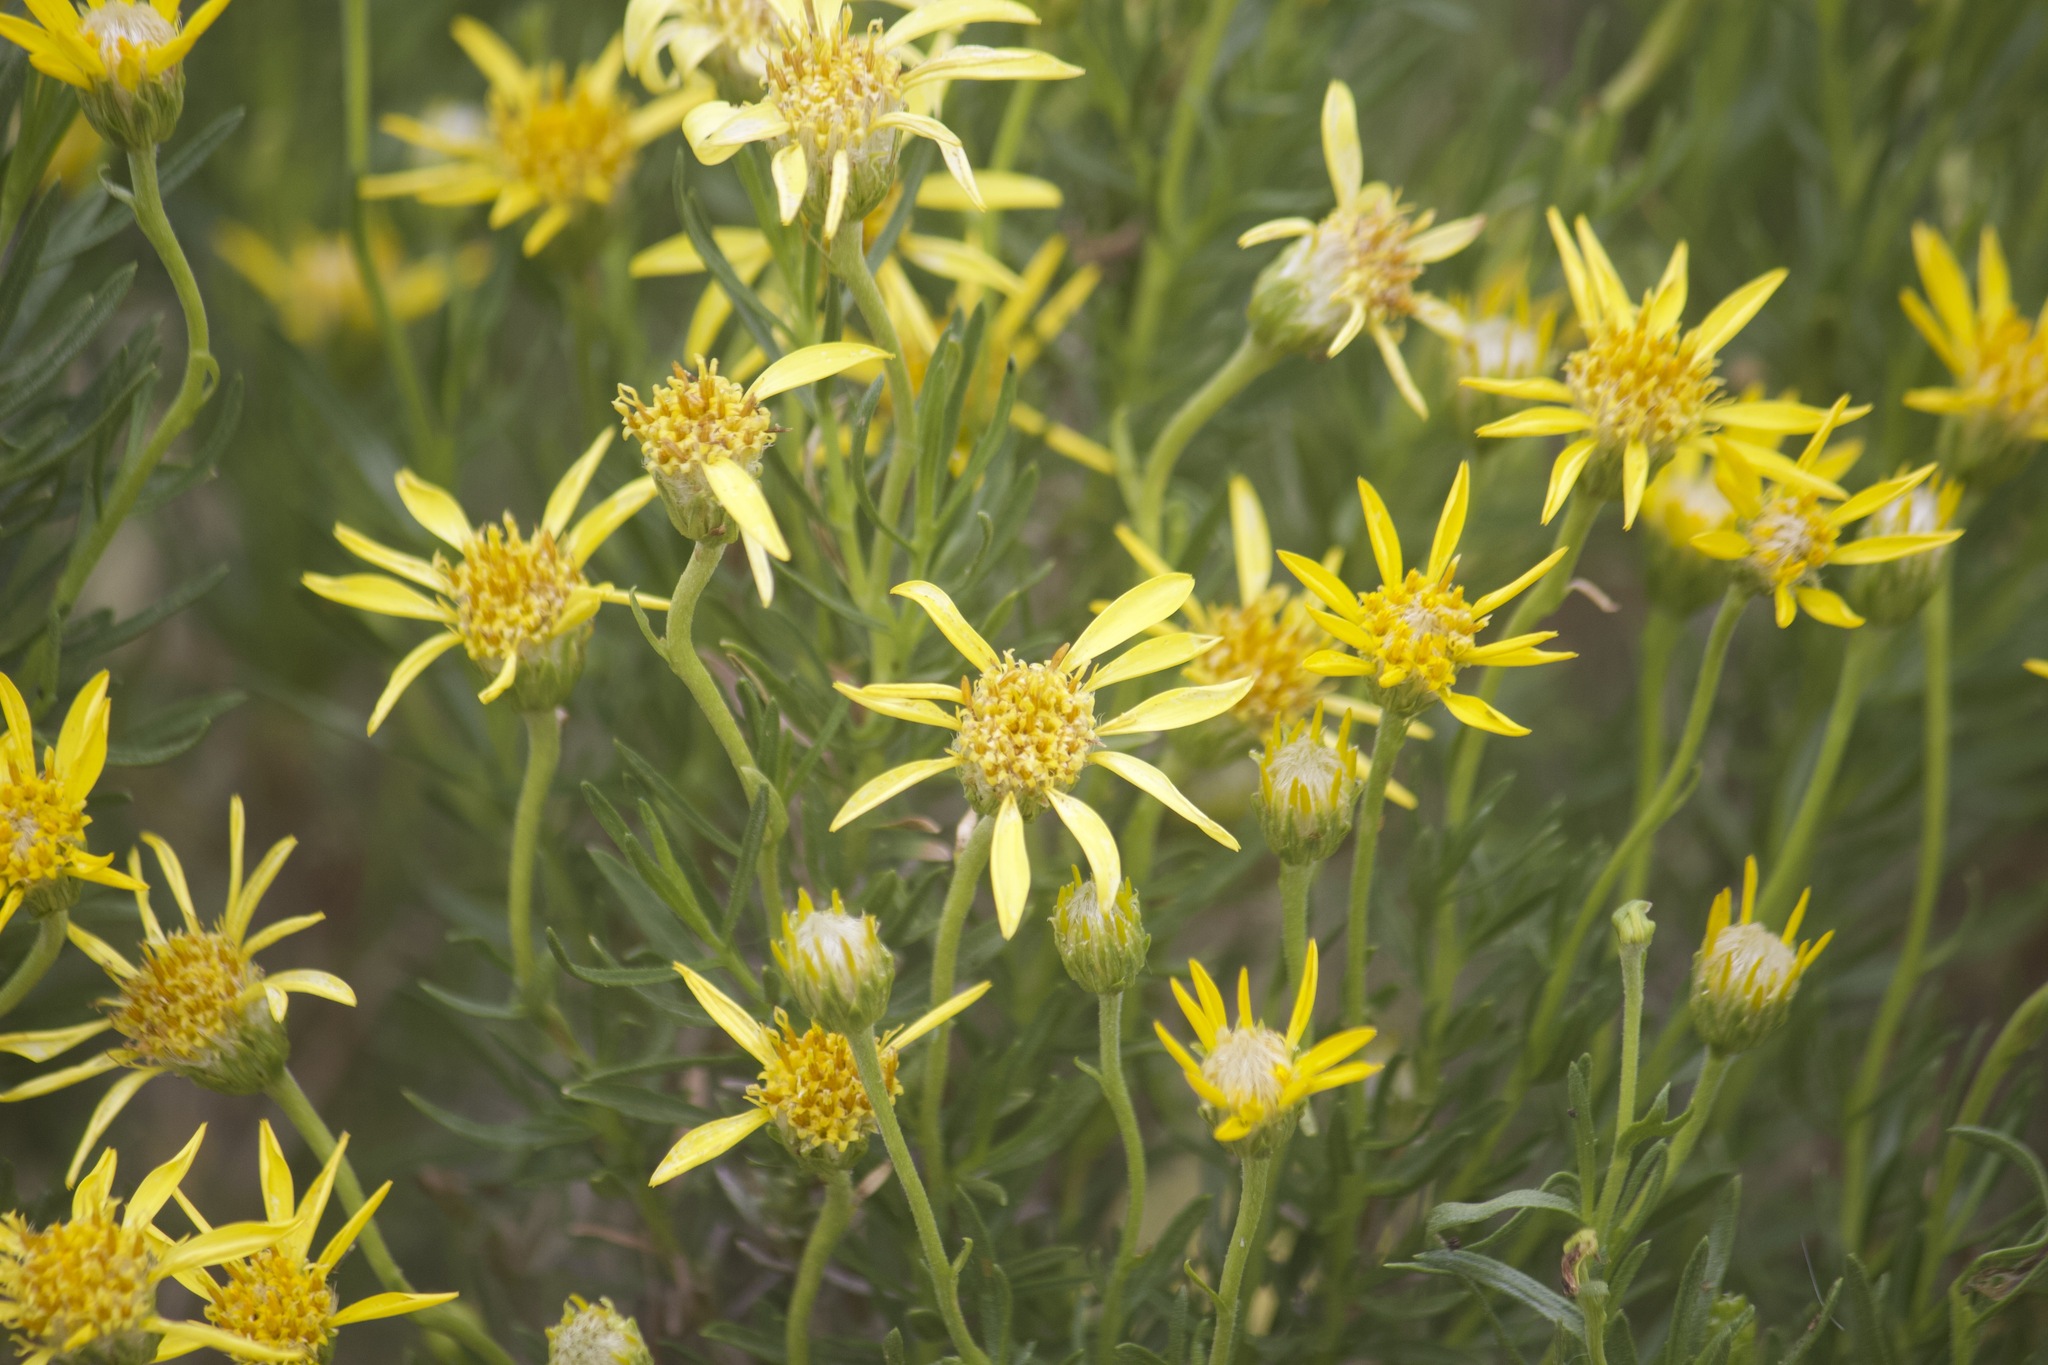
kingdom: Plantae
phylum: Tracheophyta
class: Magnoliopsida
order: Asterales
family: Asteraceae
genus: Ericameria
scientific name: Ericameria linearifolia
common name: Interior goldenbush
